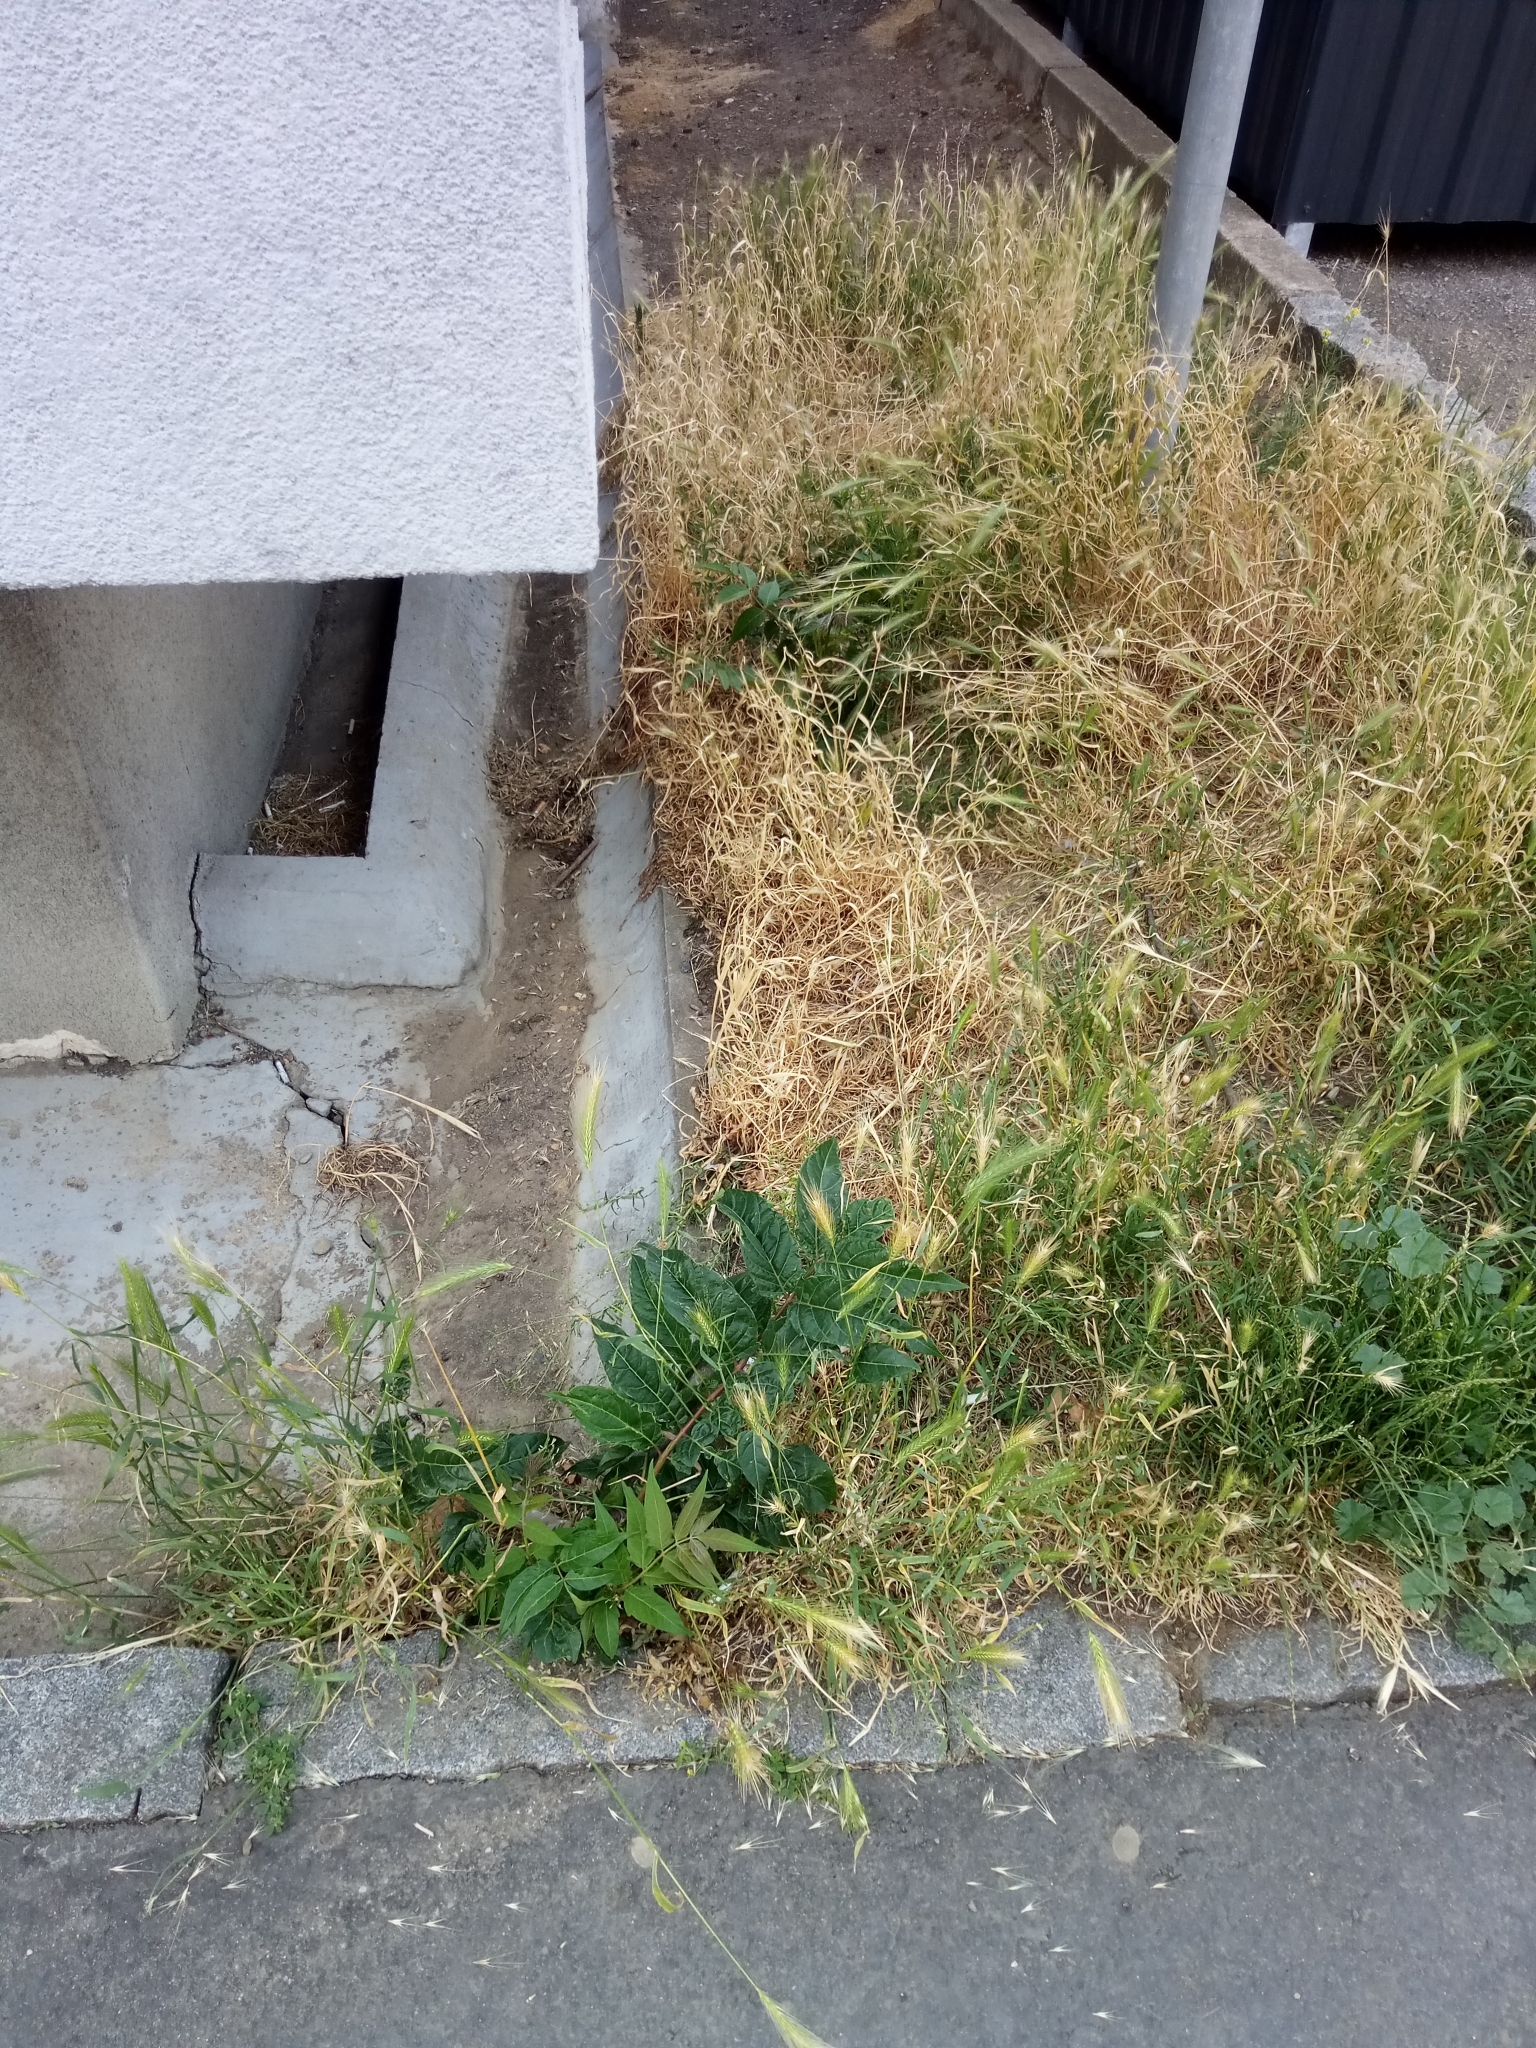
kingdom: Plantae
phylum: Tracheophyta
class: Magnoliopsida
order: Sapindales
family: Simaroubaceae
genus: Ailanthus
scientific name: Ailanthus altissima
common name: Tree-of-heaven
